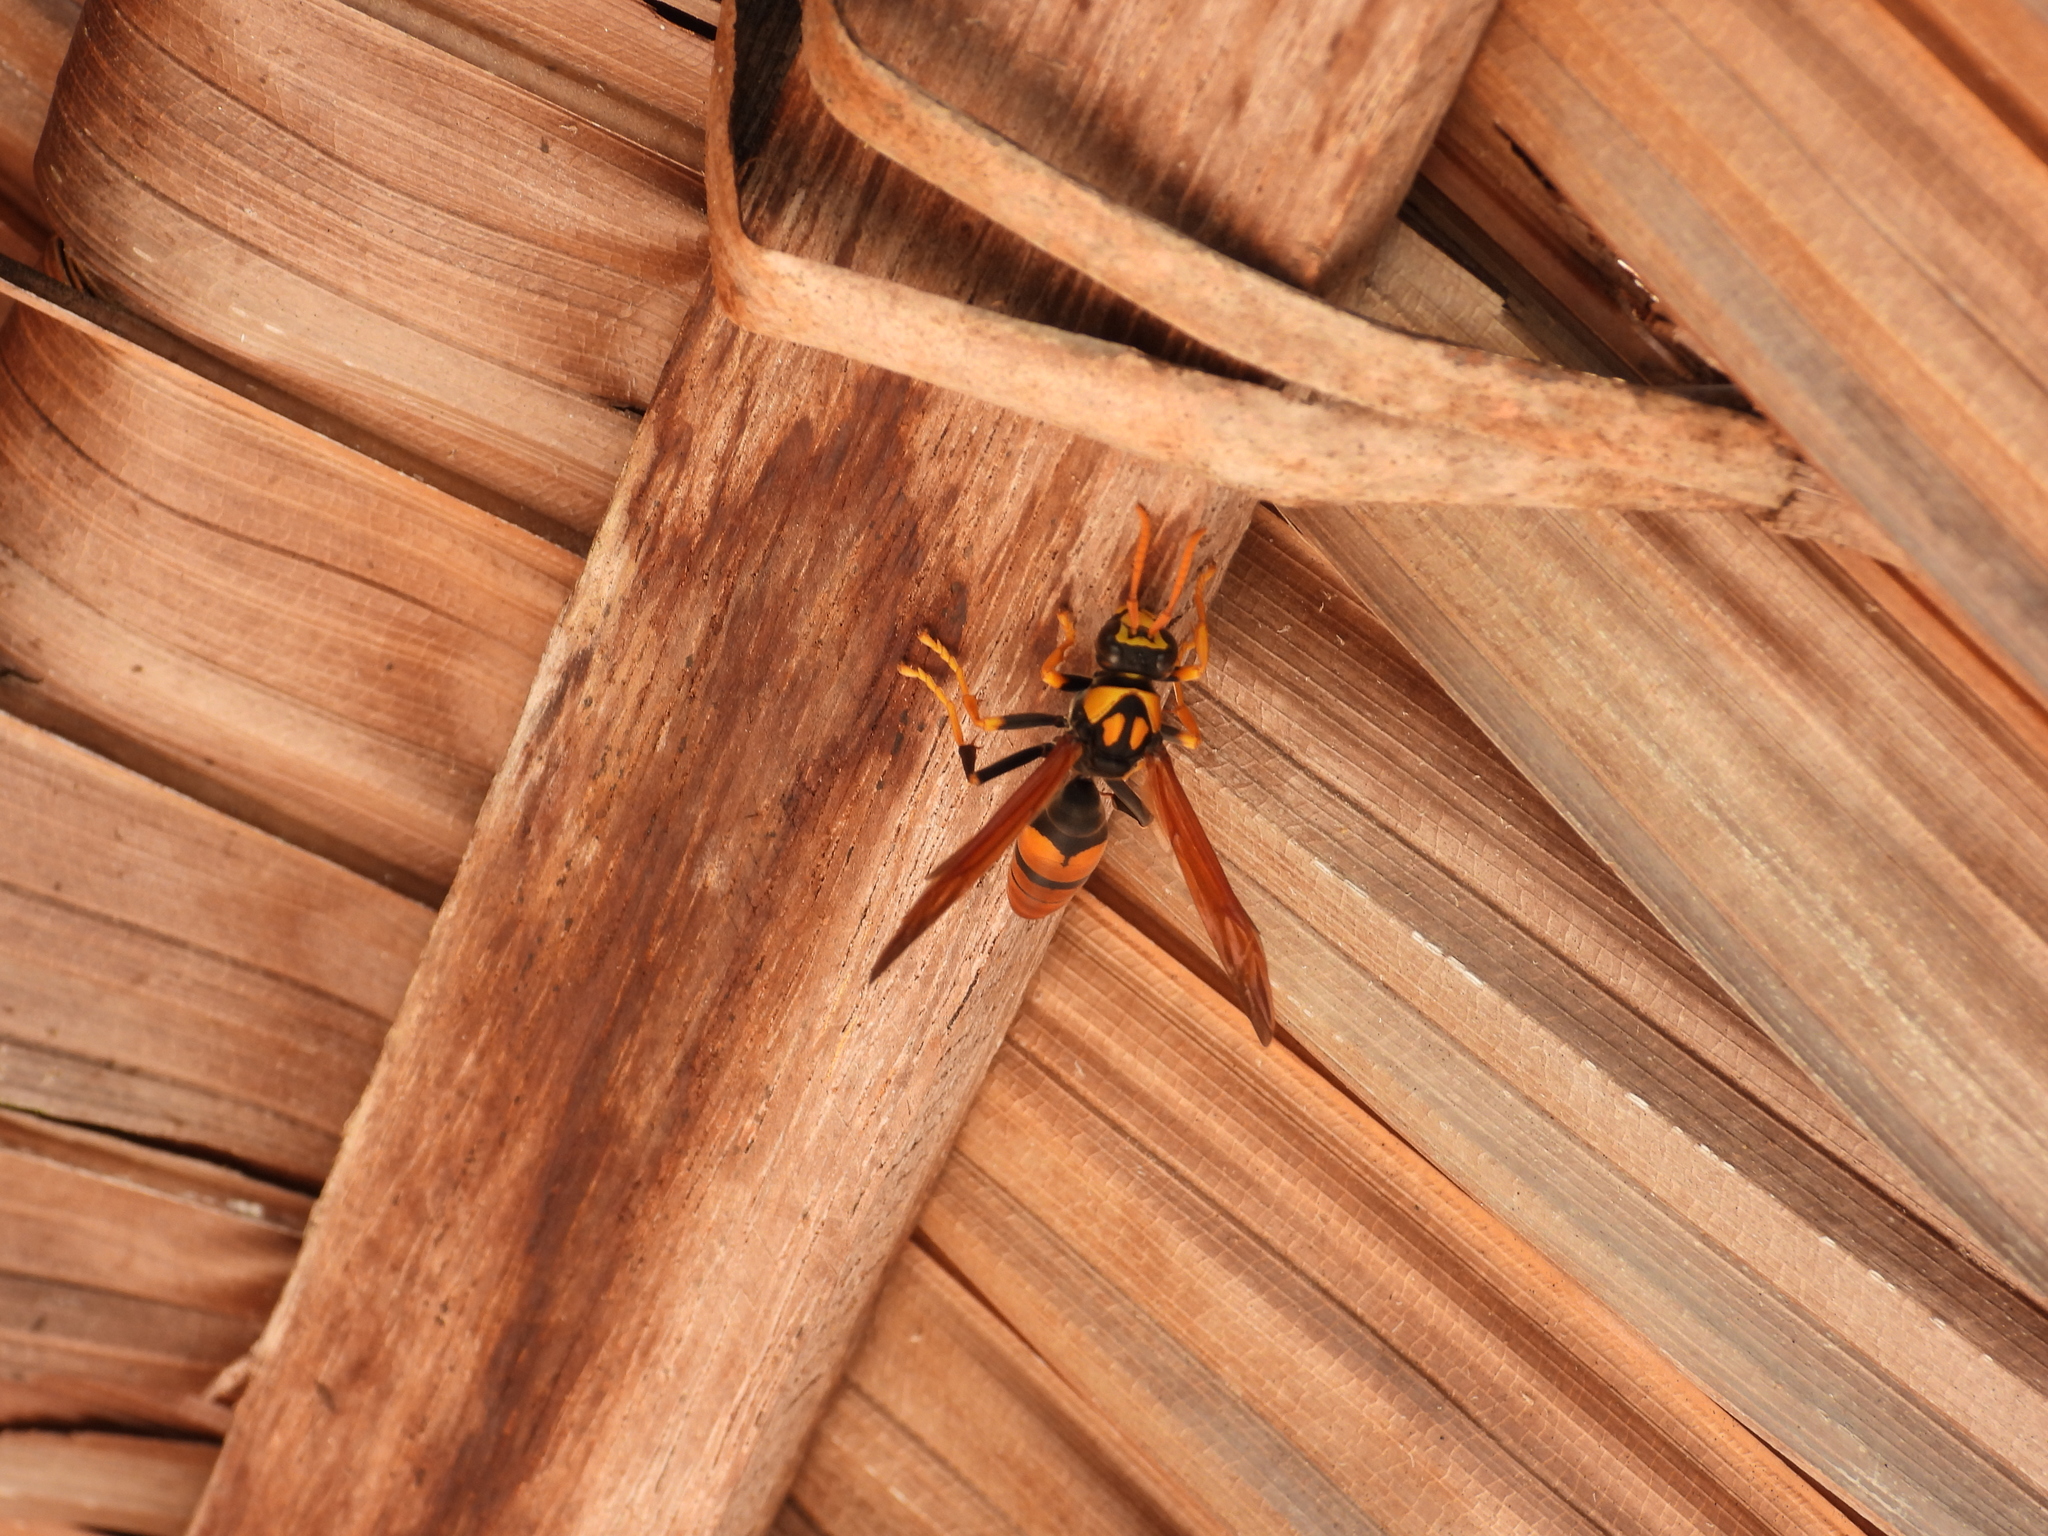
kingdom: Animalia
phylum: Arthropoda
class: Insecta
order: Hymenoptera
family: Eumenidae
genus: Polistes
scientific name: Polistes tepidus
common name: Paper wasp
